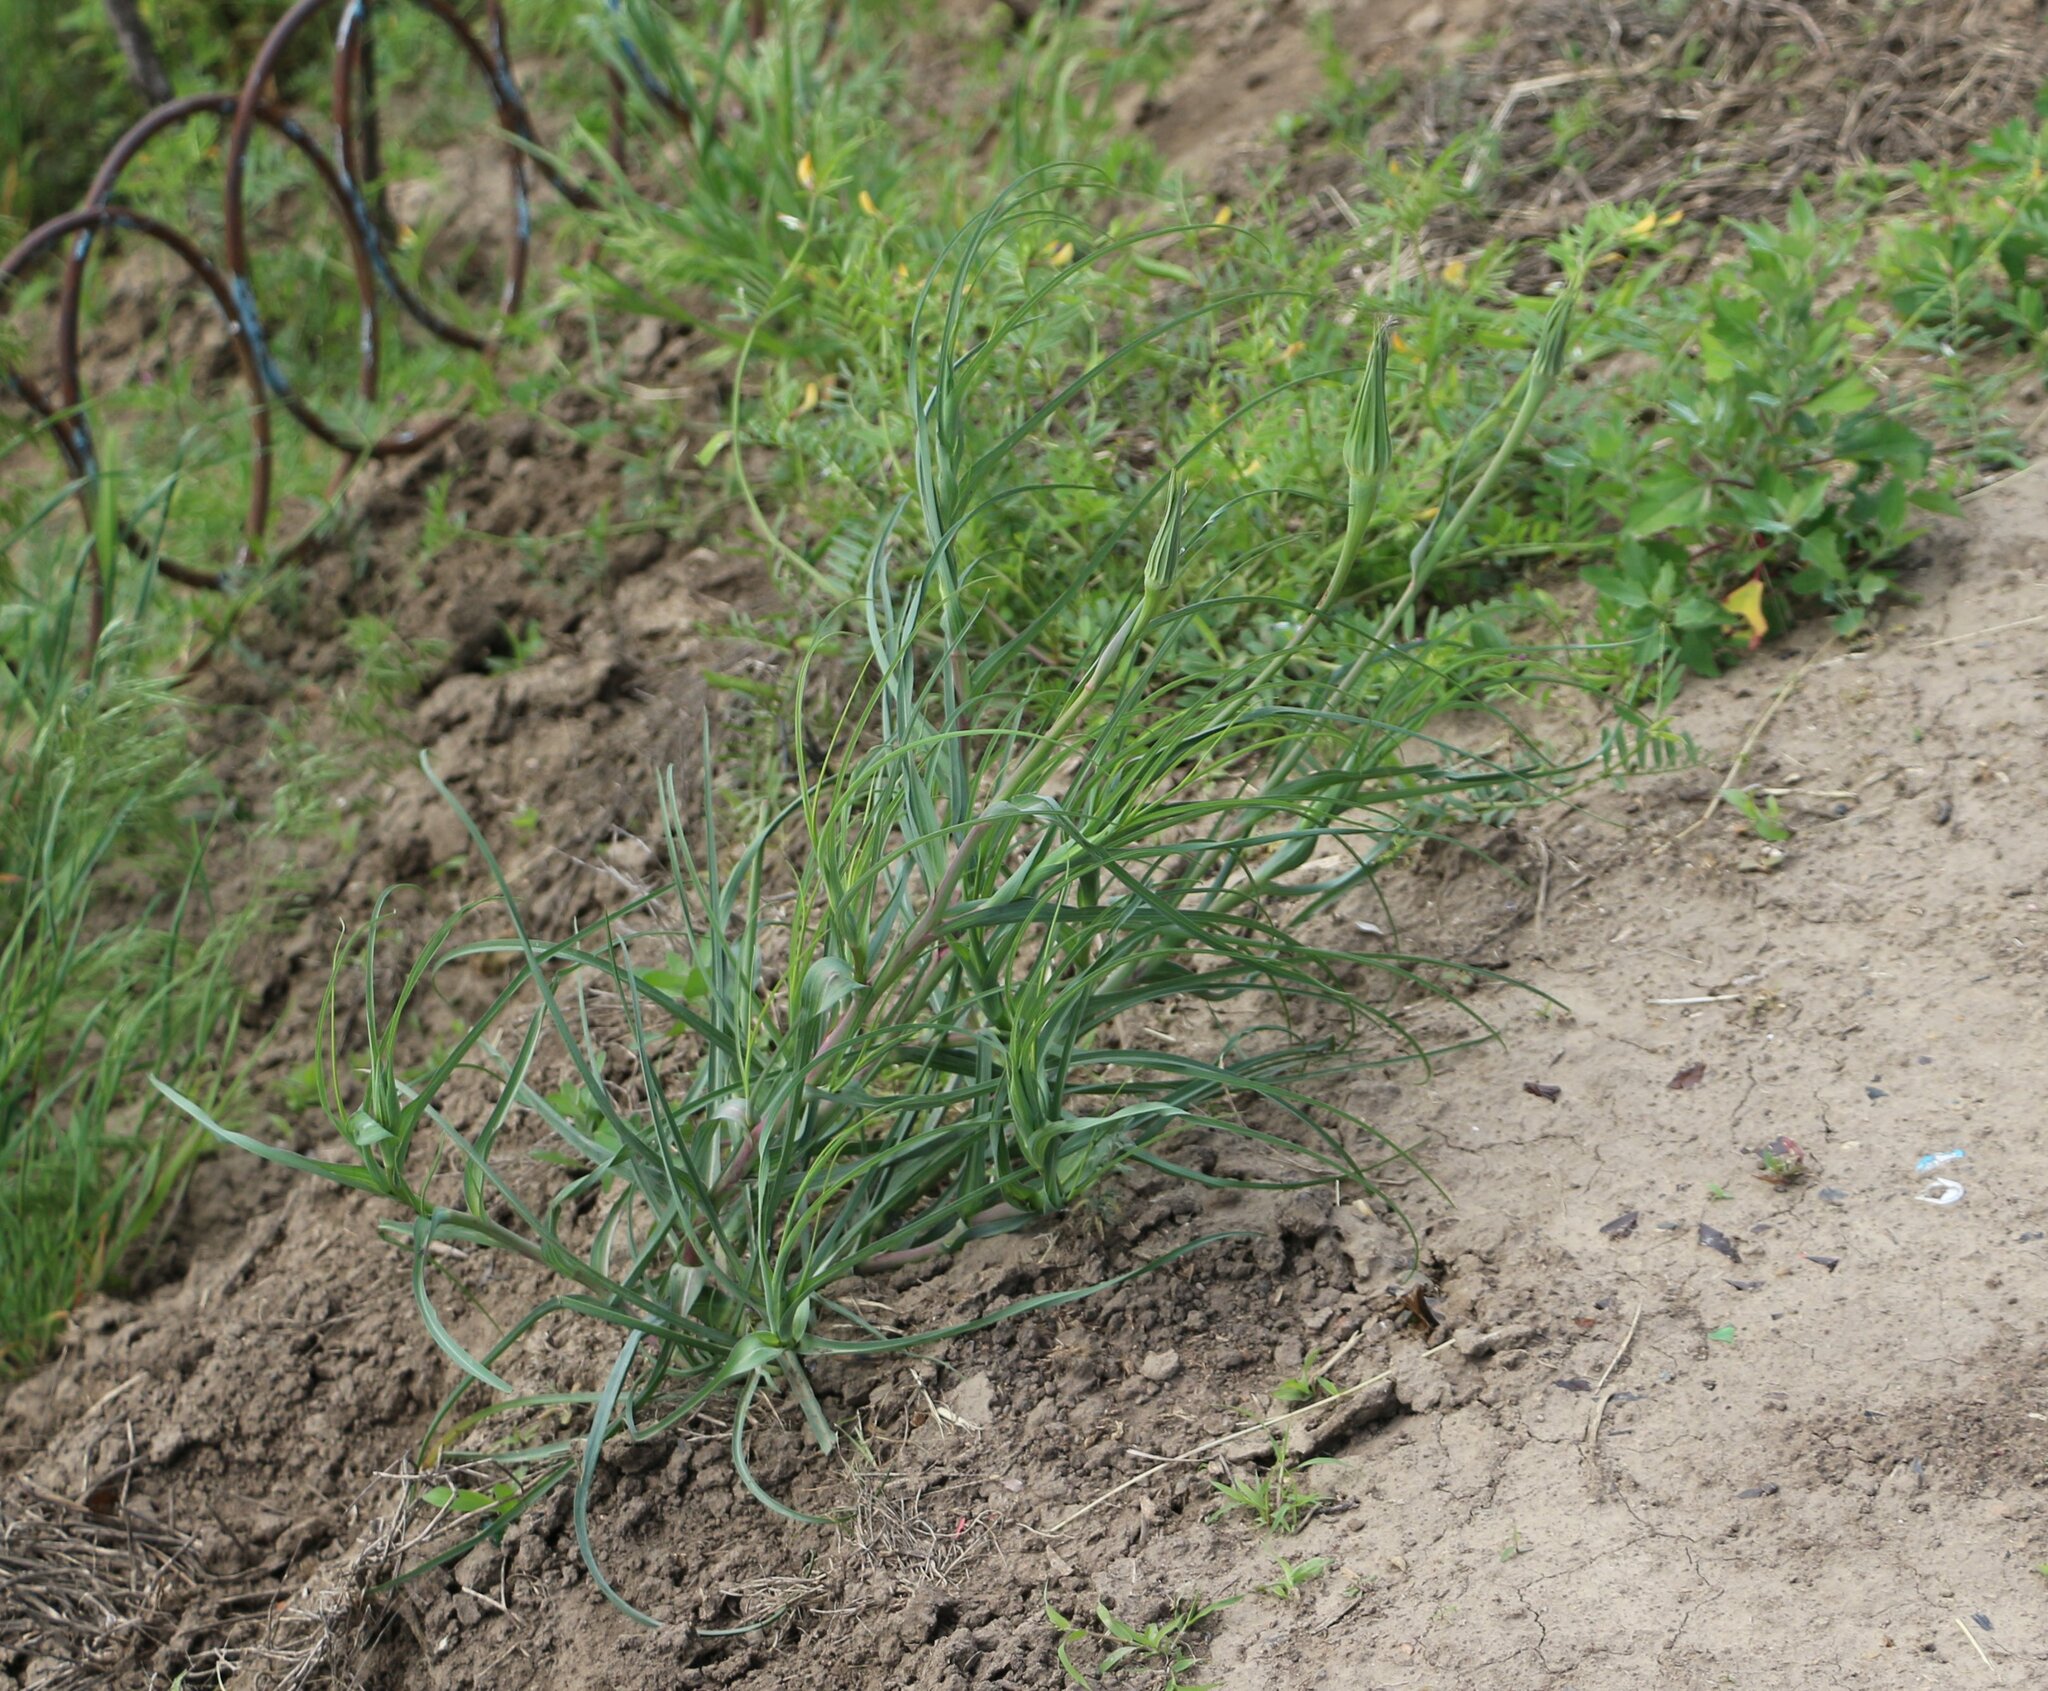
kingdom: Plantae
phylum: Tracheophyta
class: Magnoliopsida
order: Asterales
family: Asteraceae
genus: Tragopogon
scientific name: Tragopogon dubius
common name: Yellow salsify
